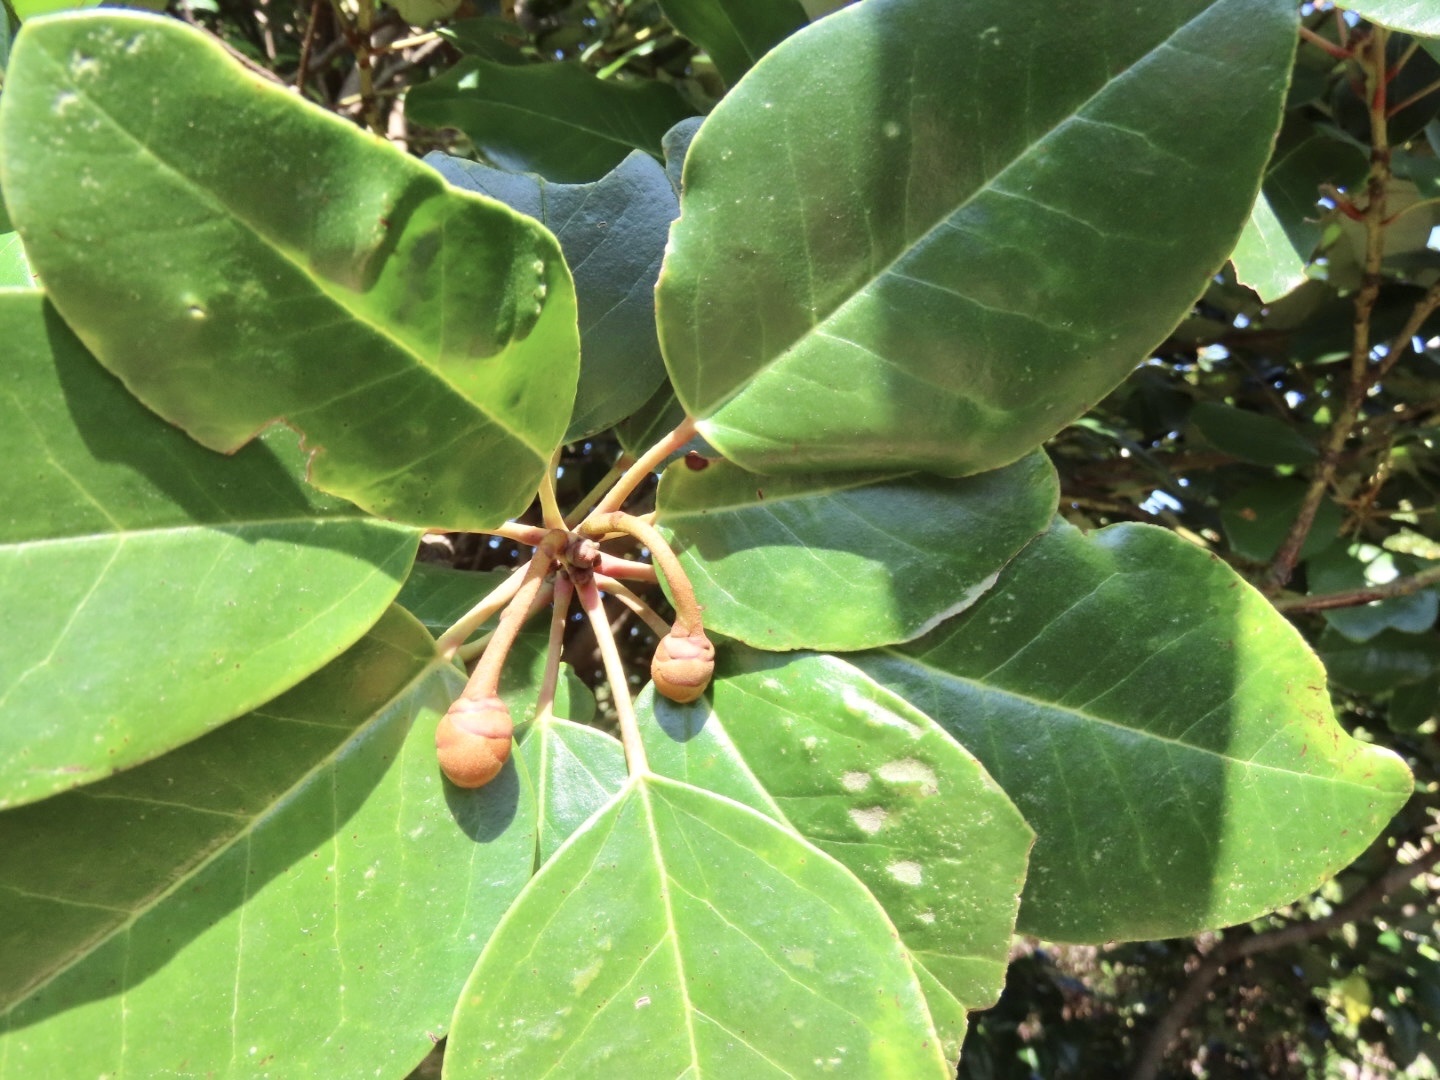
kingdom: Plantae
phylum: Tracheophyta
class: Magnoliopsida
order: Saxifragales
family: Hamamelidaceae
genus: Rhodoleia
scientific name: Rhodoleia championii
